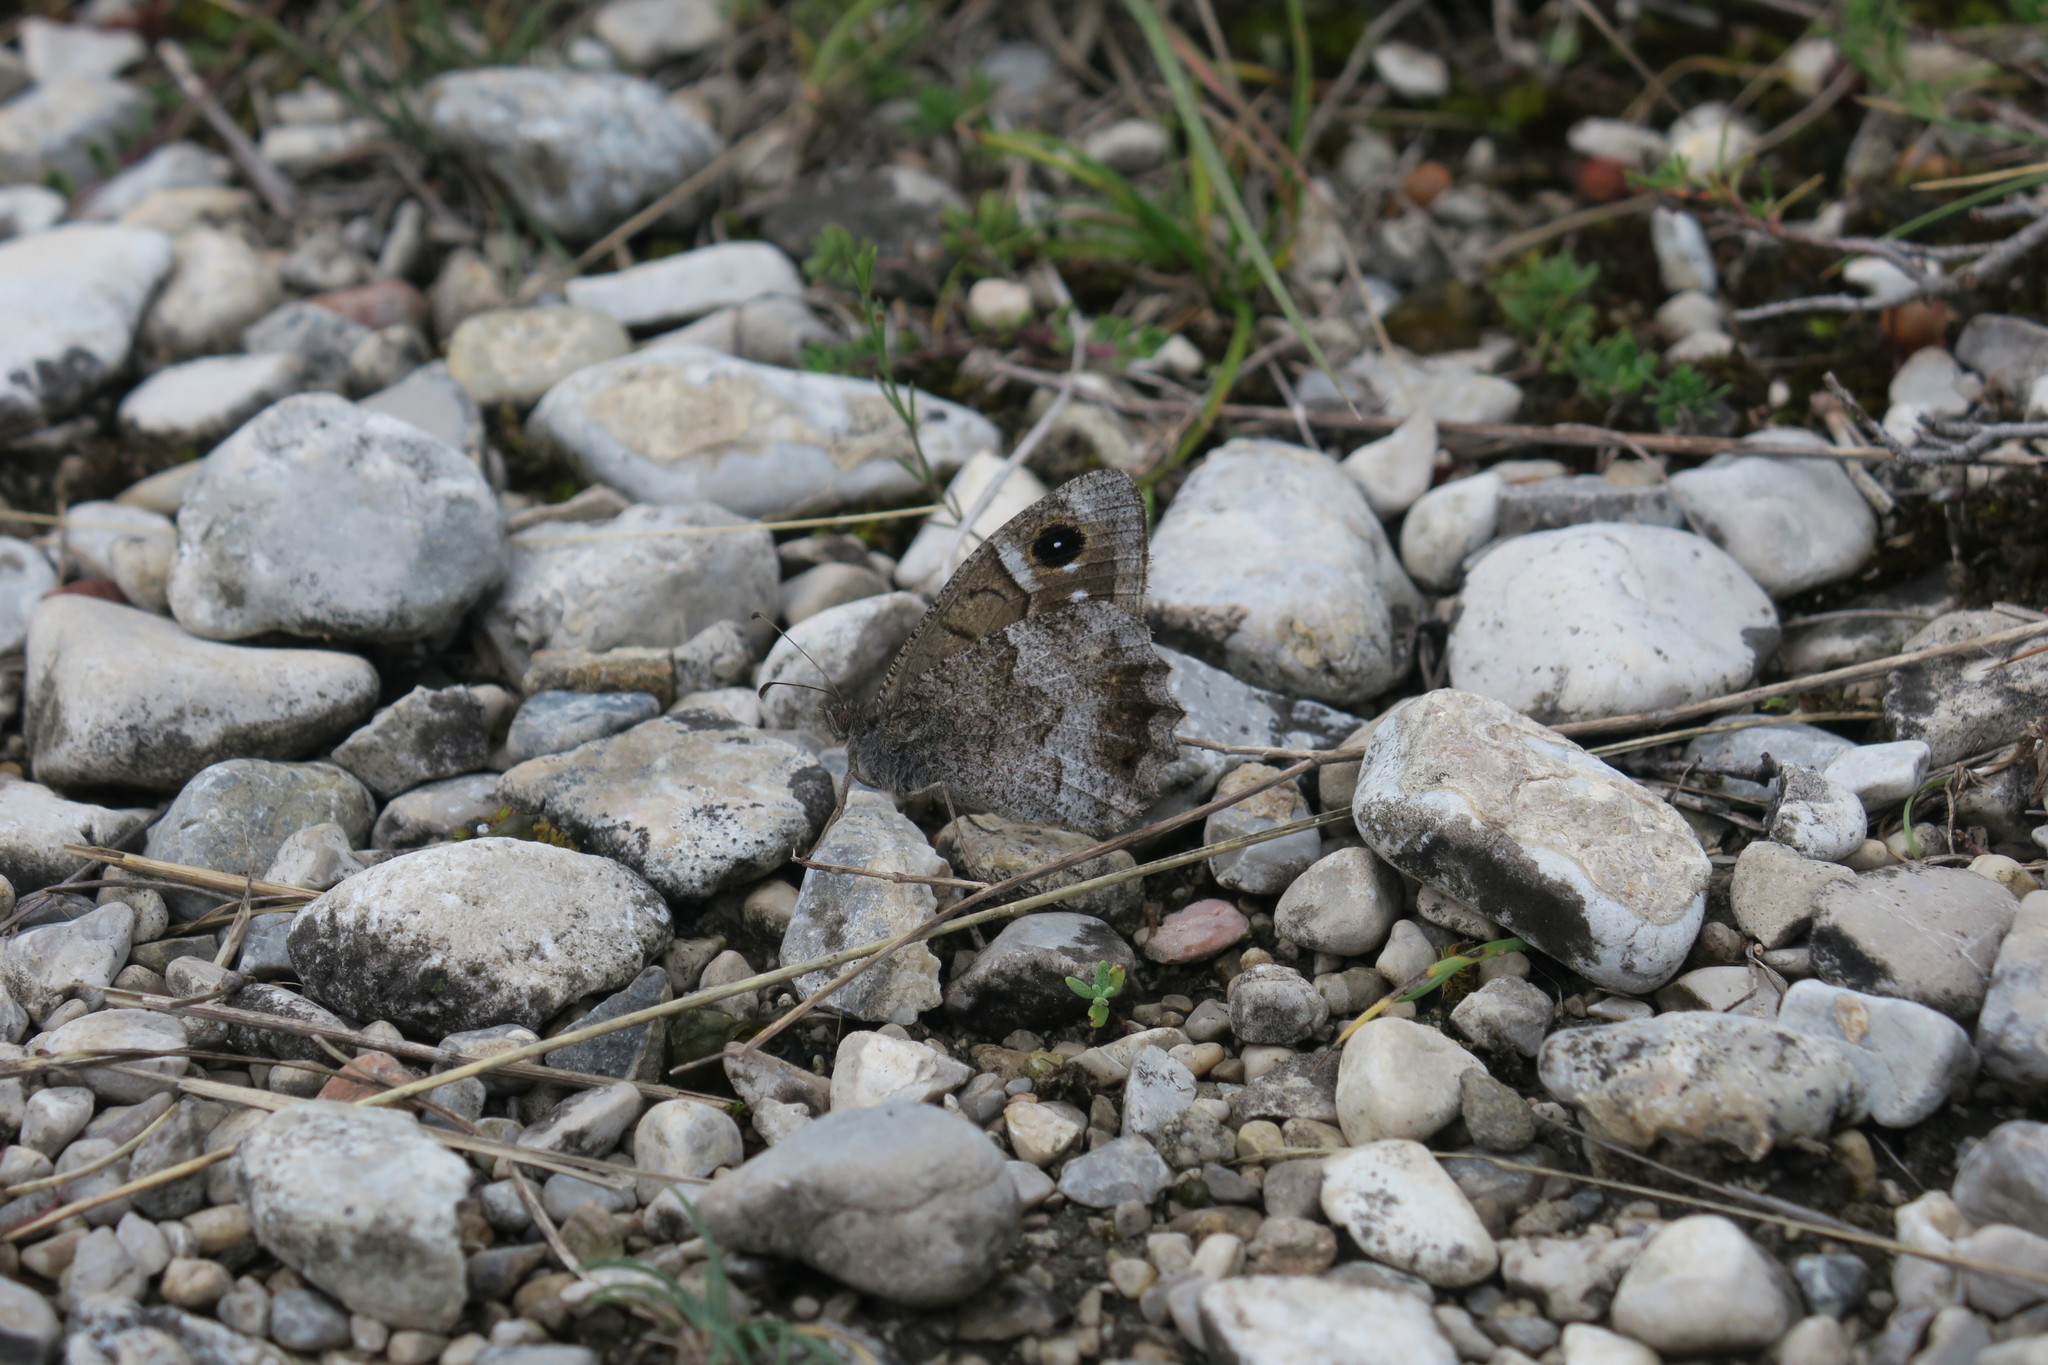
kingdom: Animalia
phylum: Arthropoda
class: Insecta
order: Lepidoptera
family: Nymphalidae
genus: Hipparchia
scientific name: Hipparchia statilinus
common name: Tree grayling
